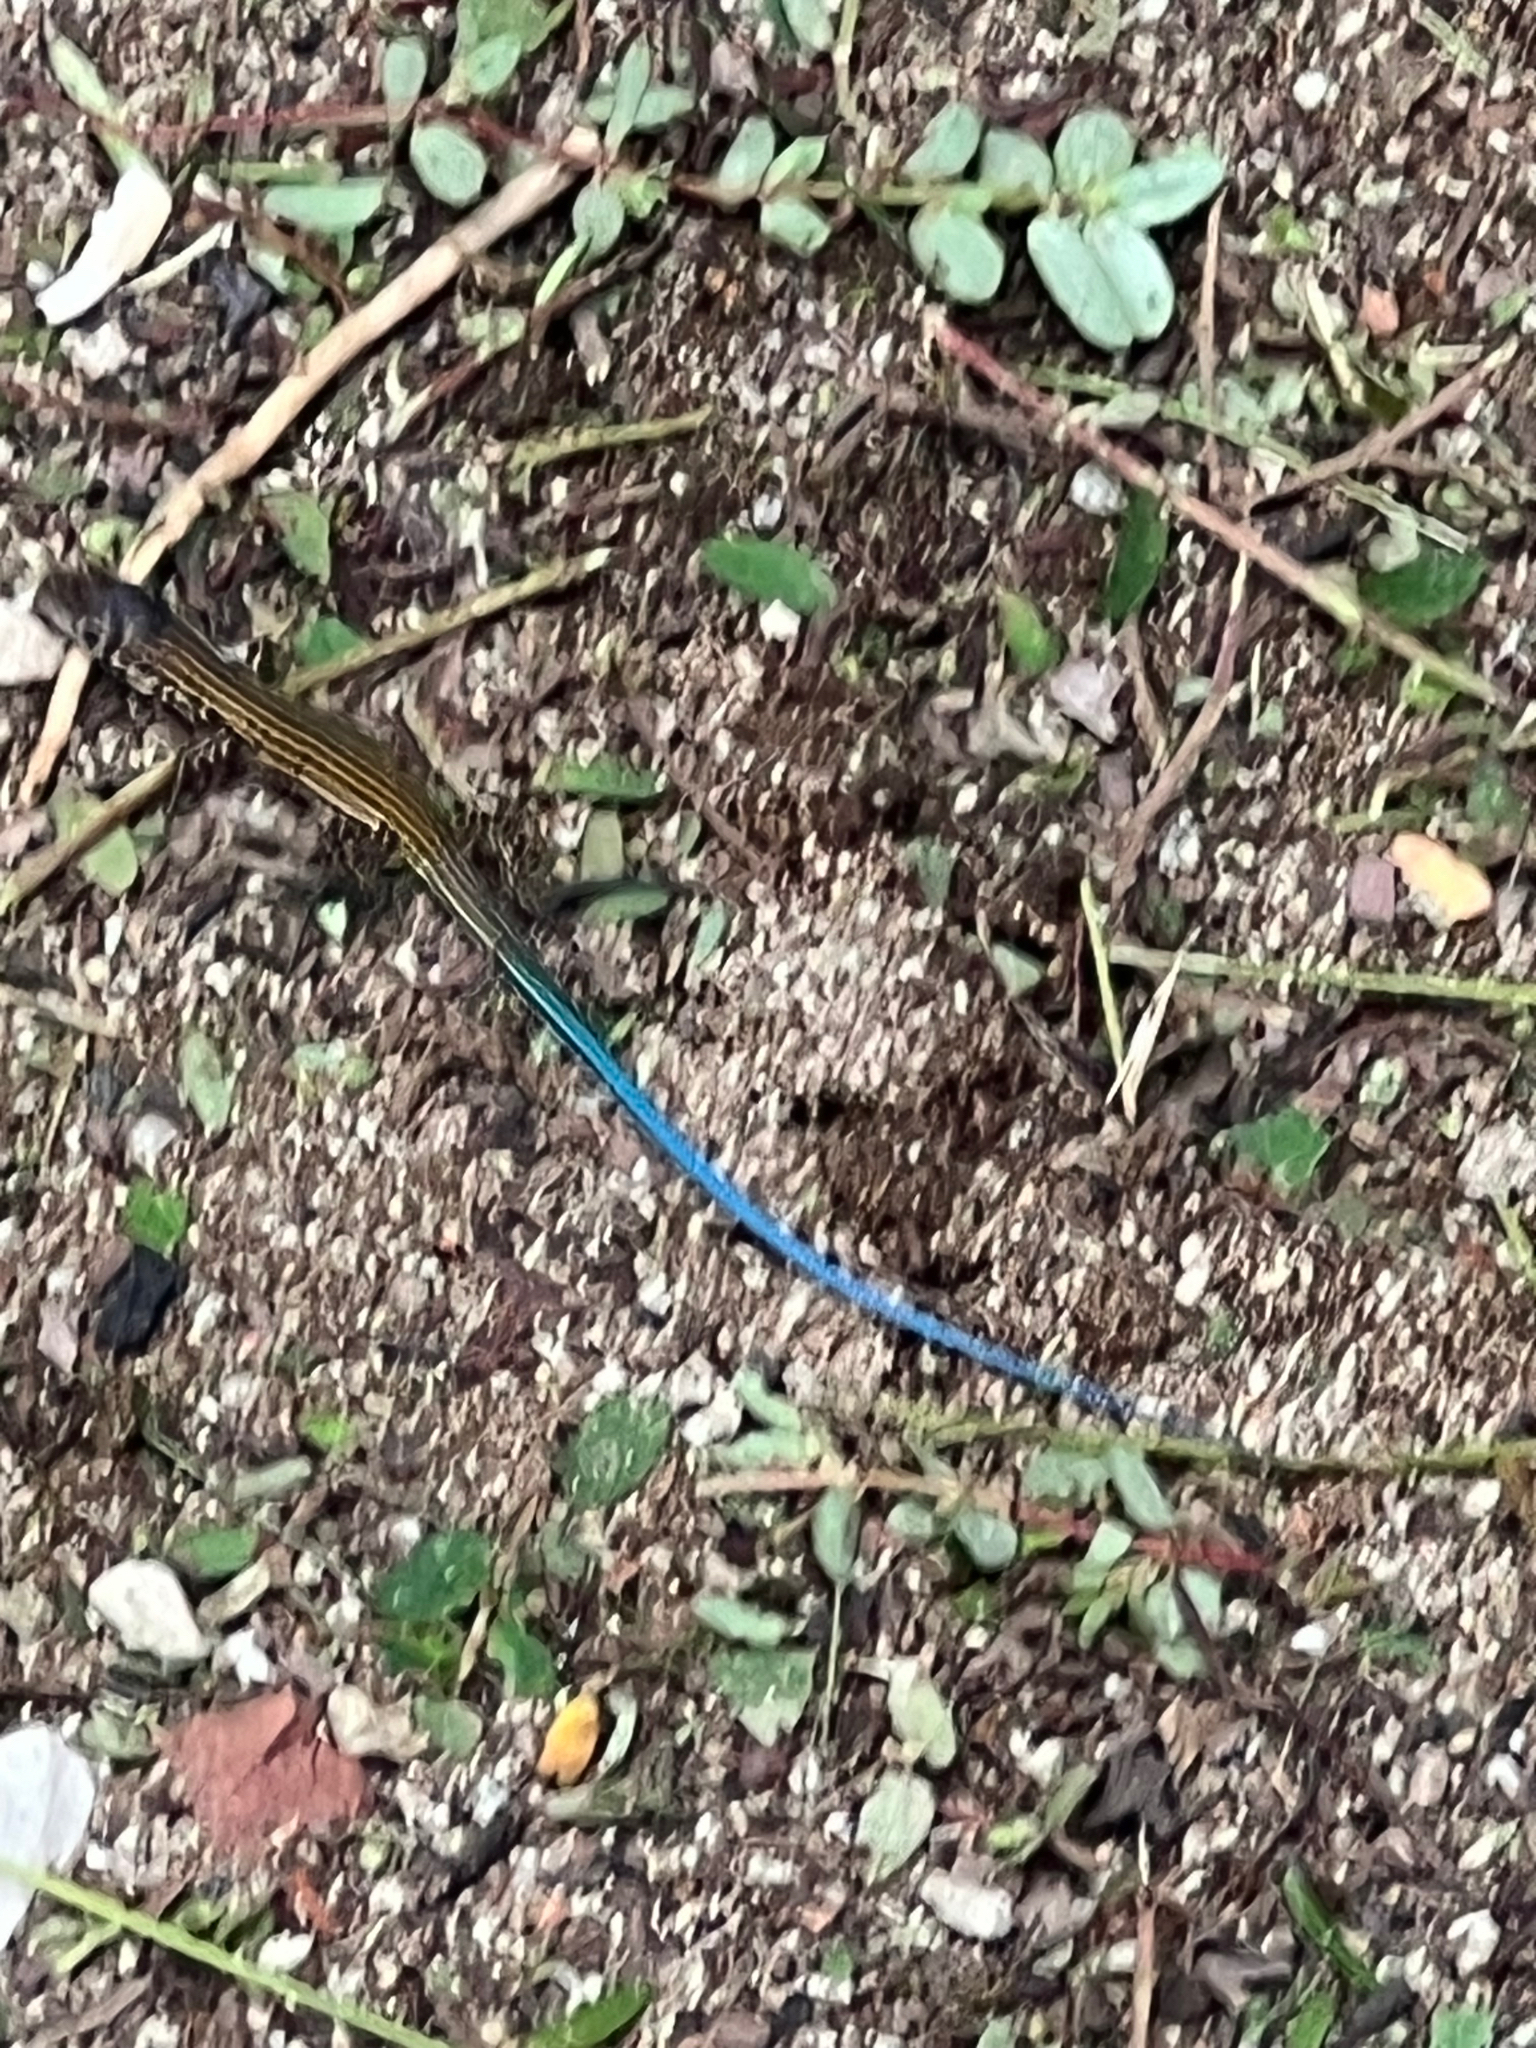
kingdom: Animalia
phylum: Chordata
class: Squamata
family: Teiidae
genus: Aspidoscelis
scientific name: Aspidoscelis deppii
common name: Blackbelly racerunner
